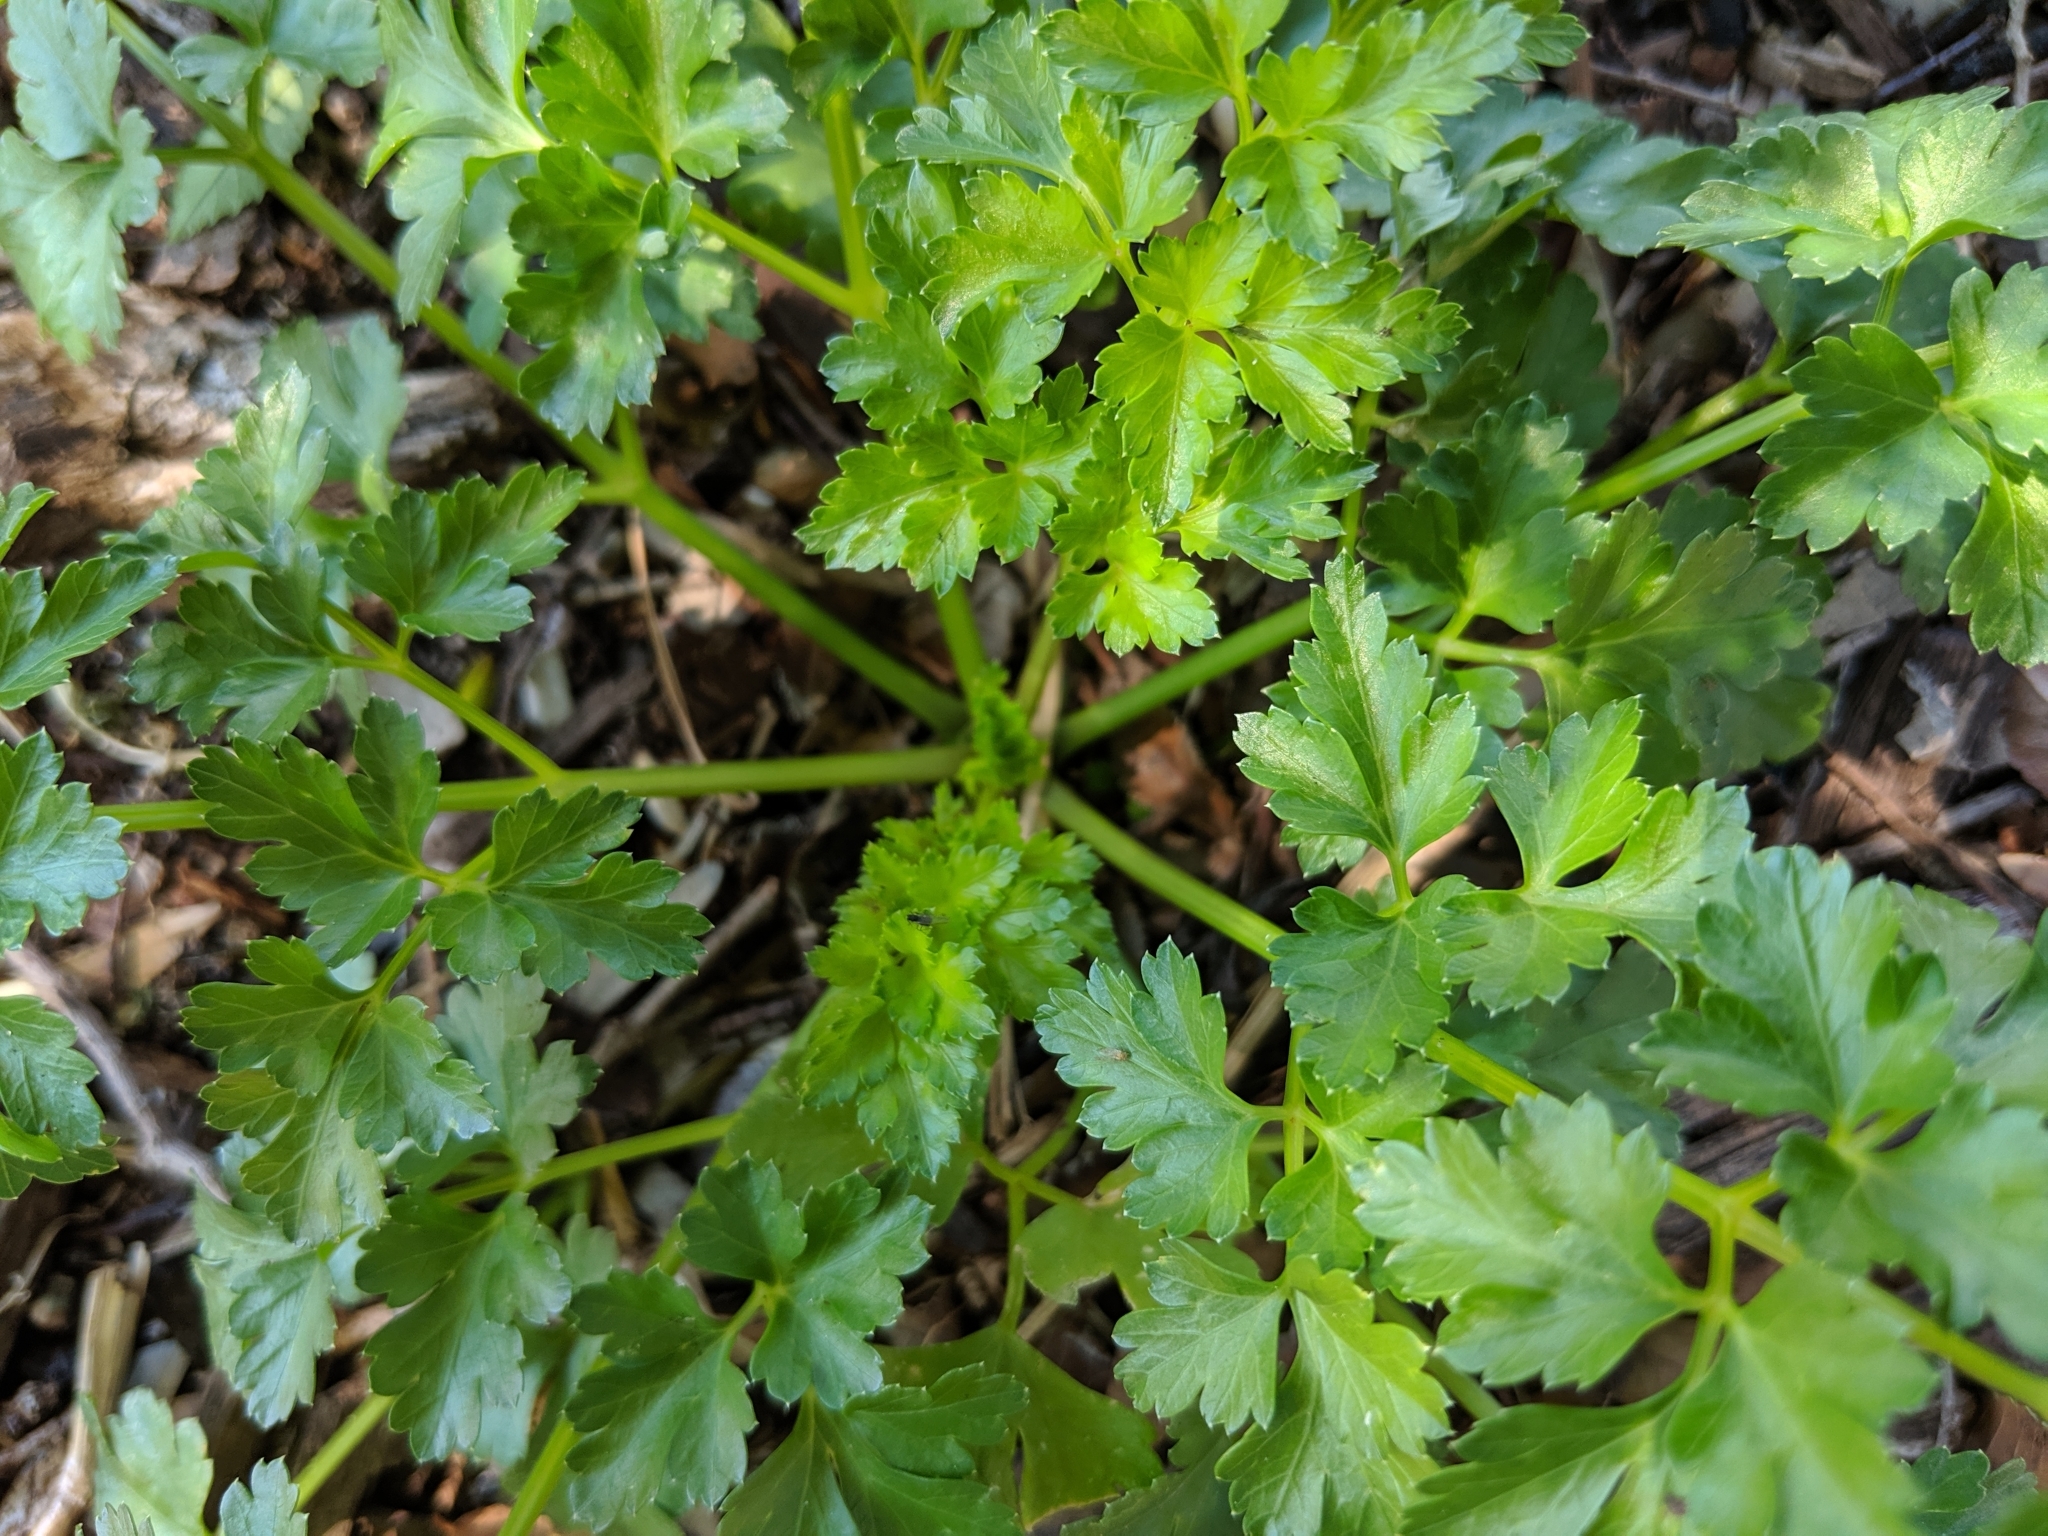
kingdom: Plantae
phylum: Tracheophyta
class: Magnoliopsida
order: Apiales
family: Apiaceae
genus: Petroselinum
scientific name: Petroselinum crispum
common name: Parsley
